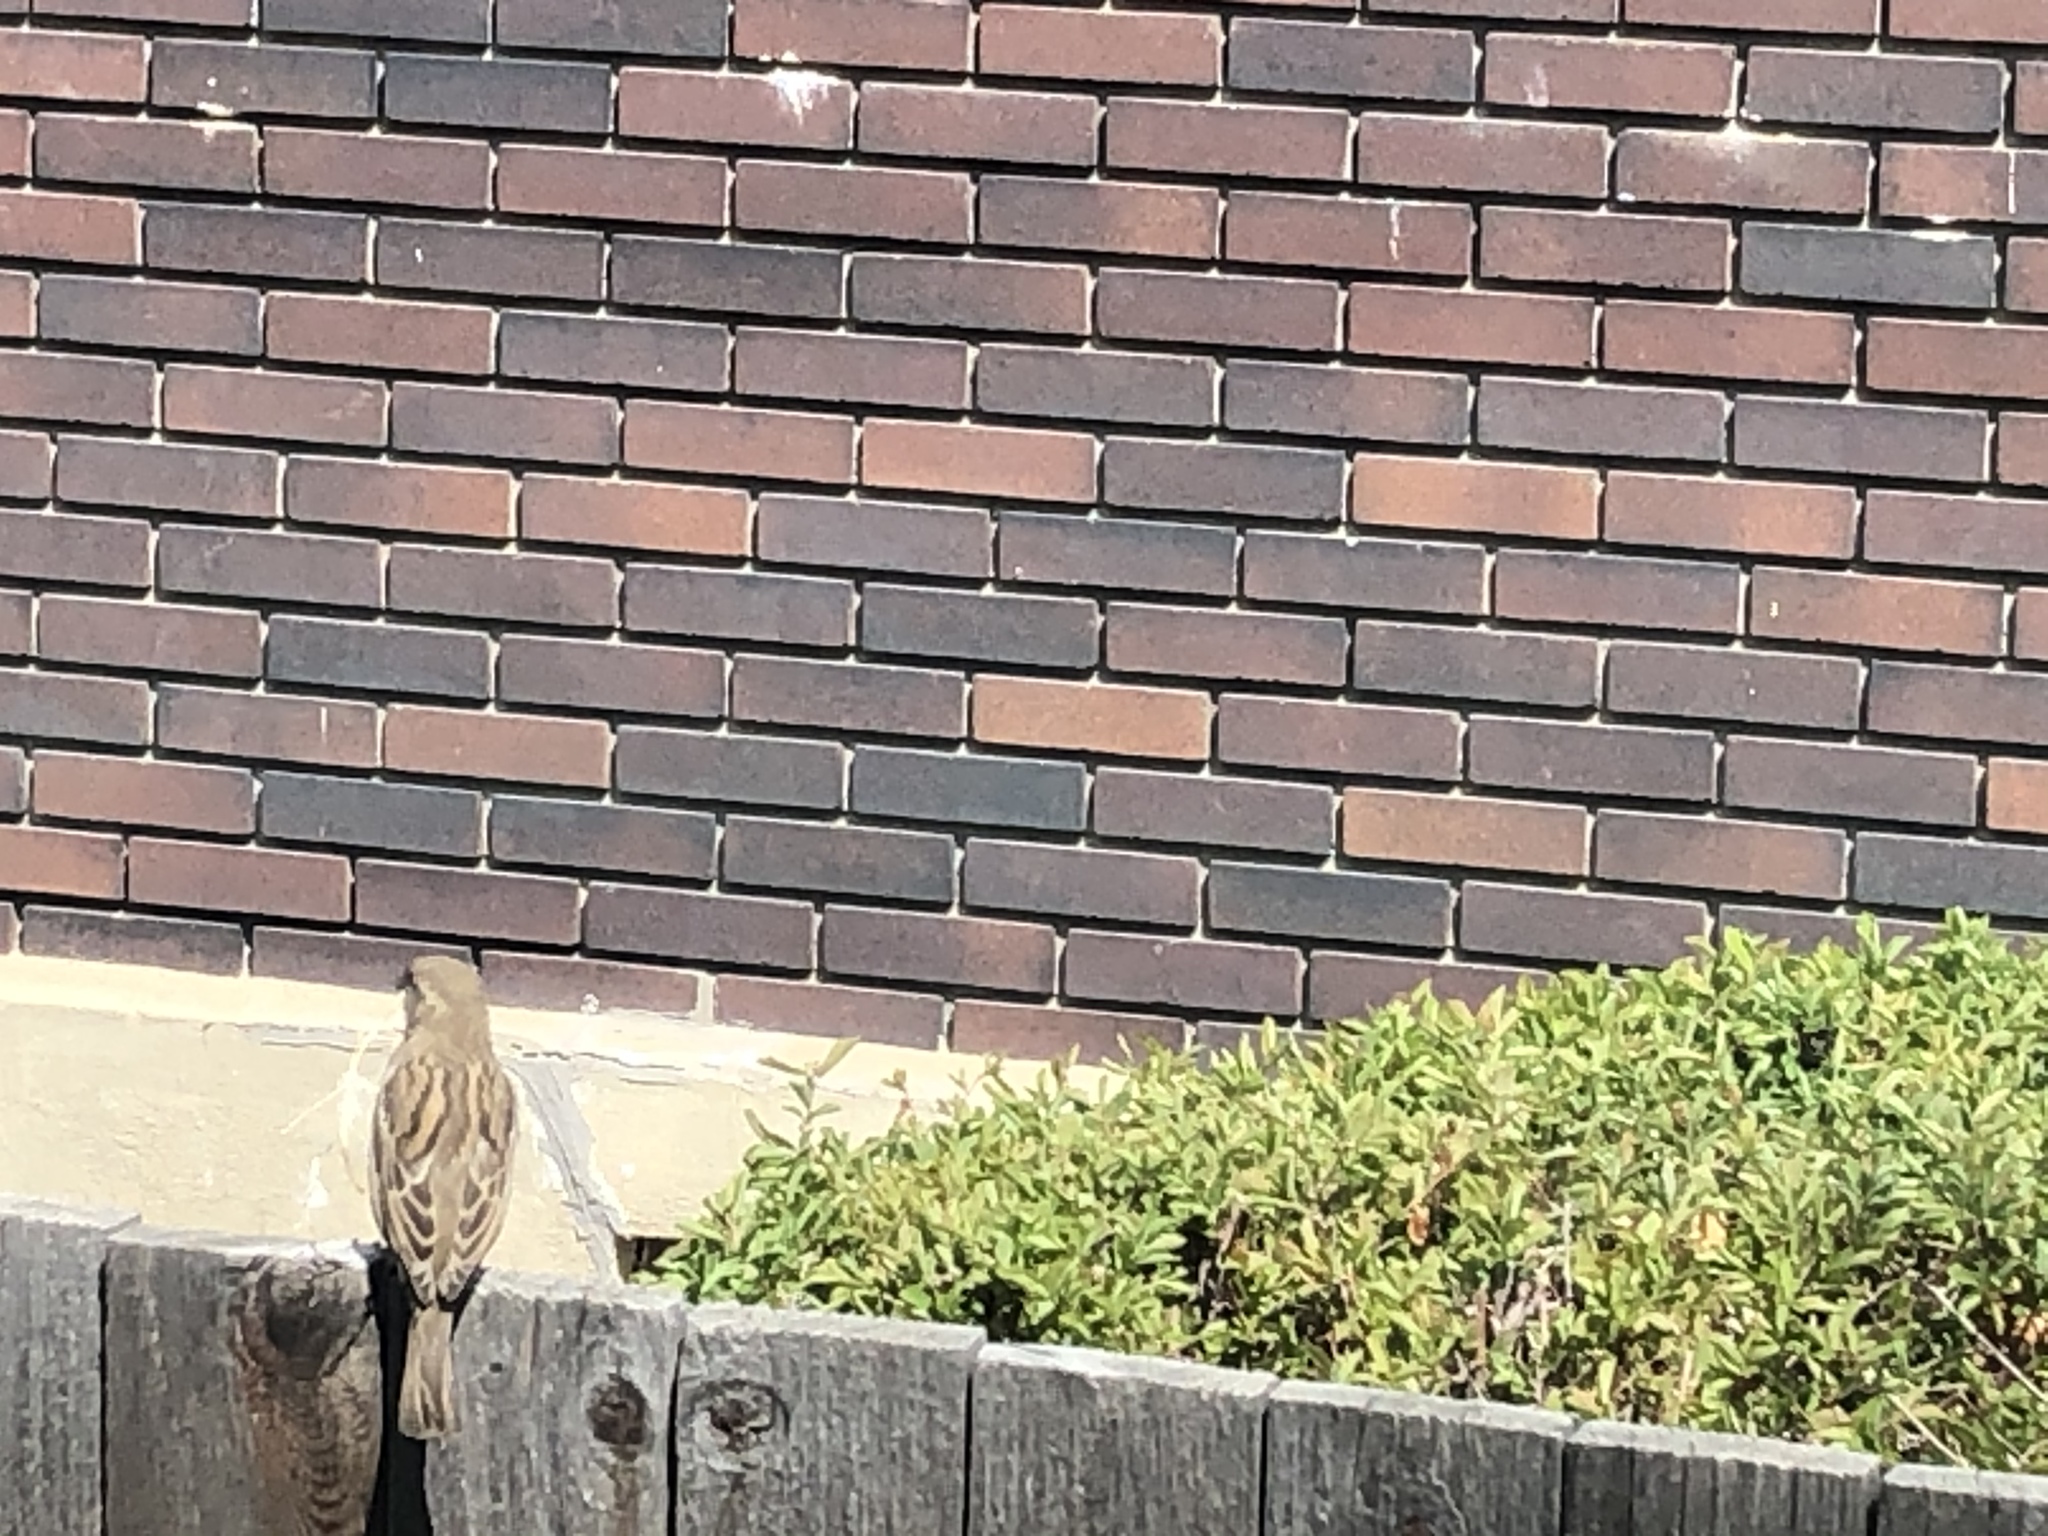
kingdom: Animalia
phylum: Chordata
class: Aves
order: Passeriformes
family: Passeridae
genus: Passer
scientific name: Passer domesticus
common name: House sparrow
